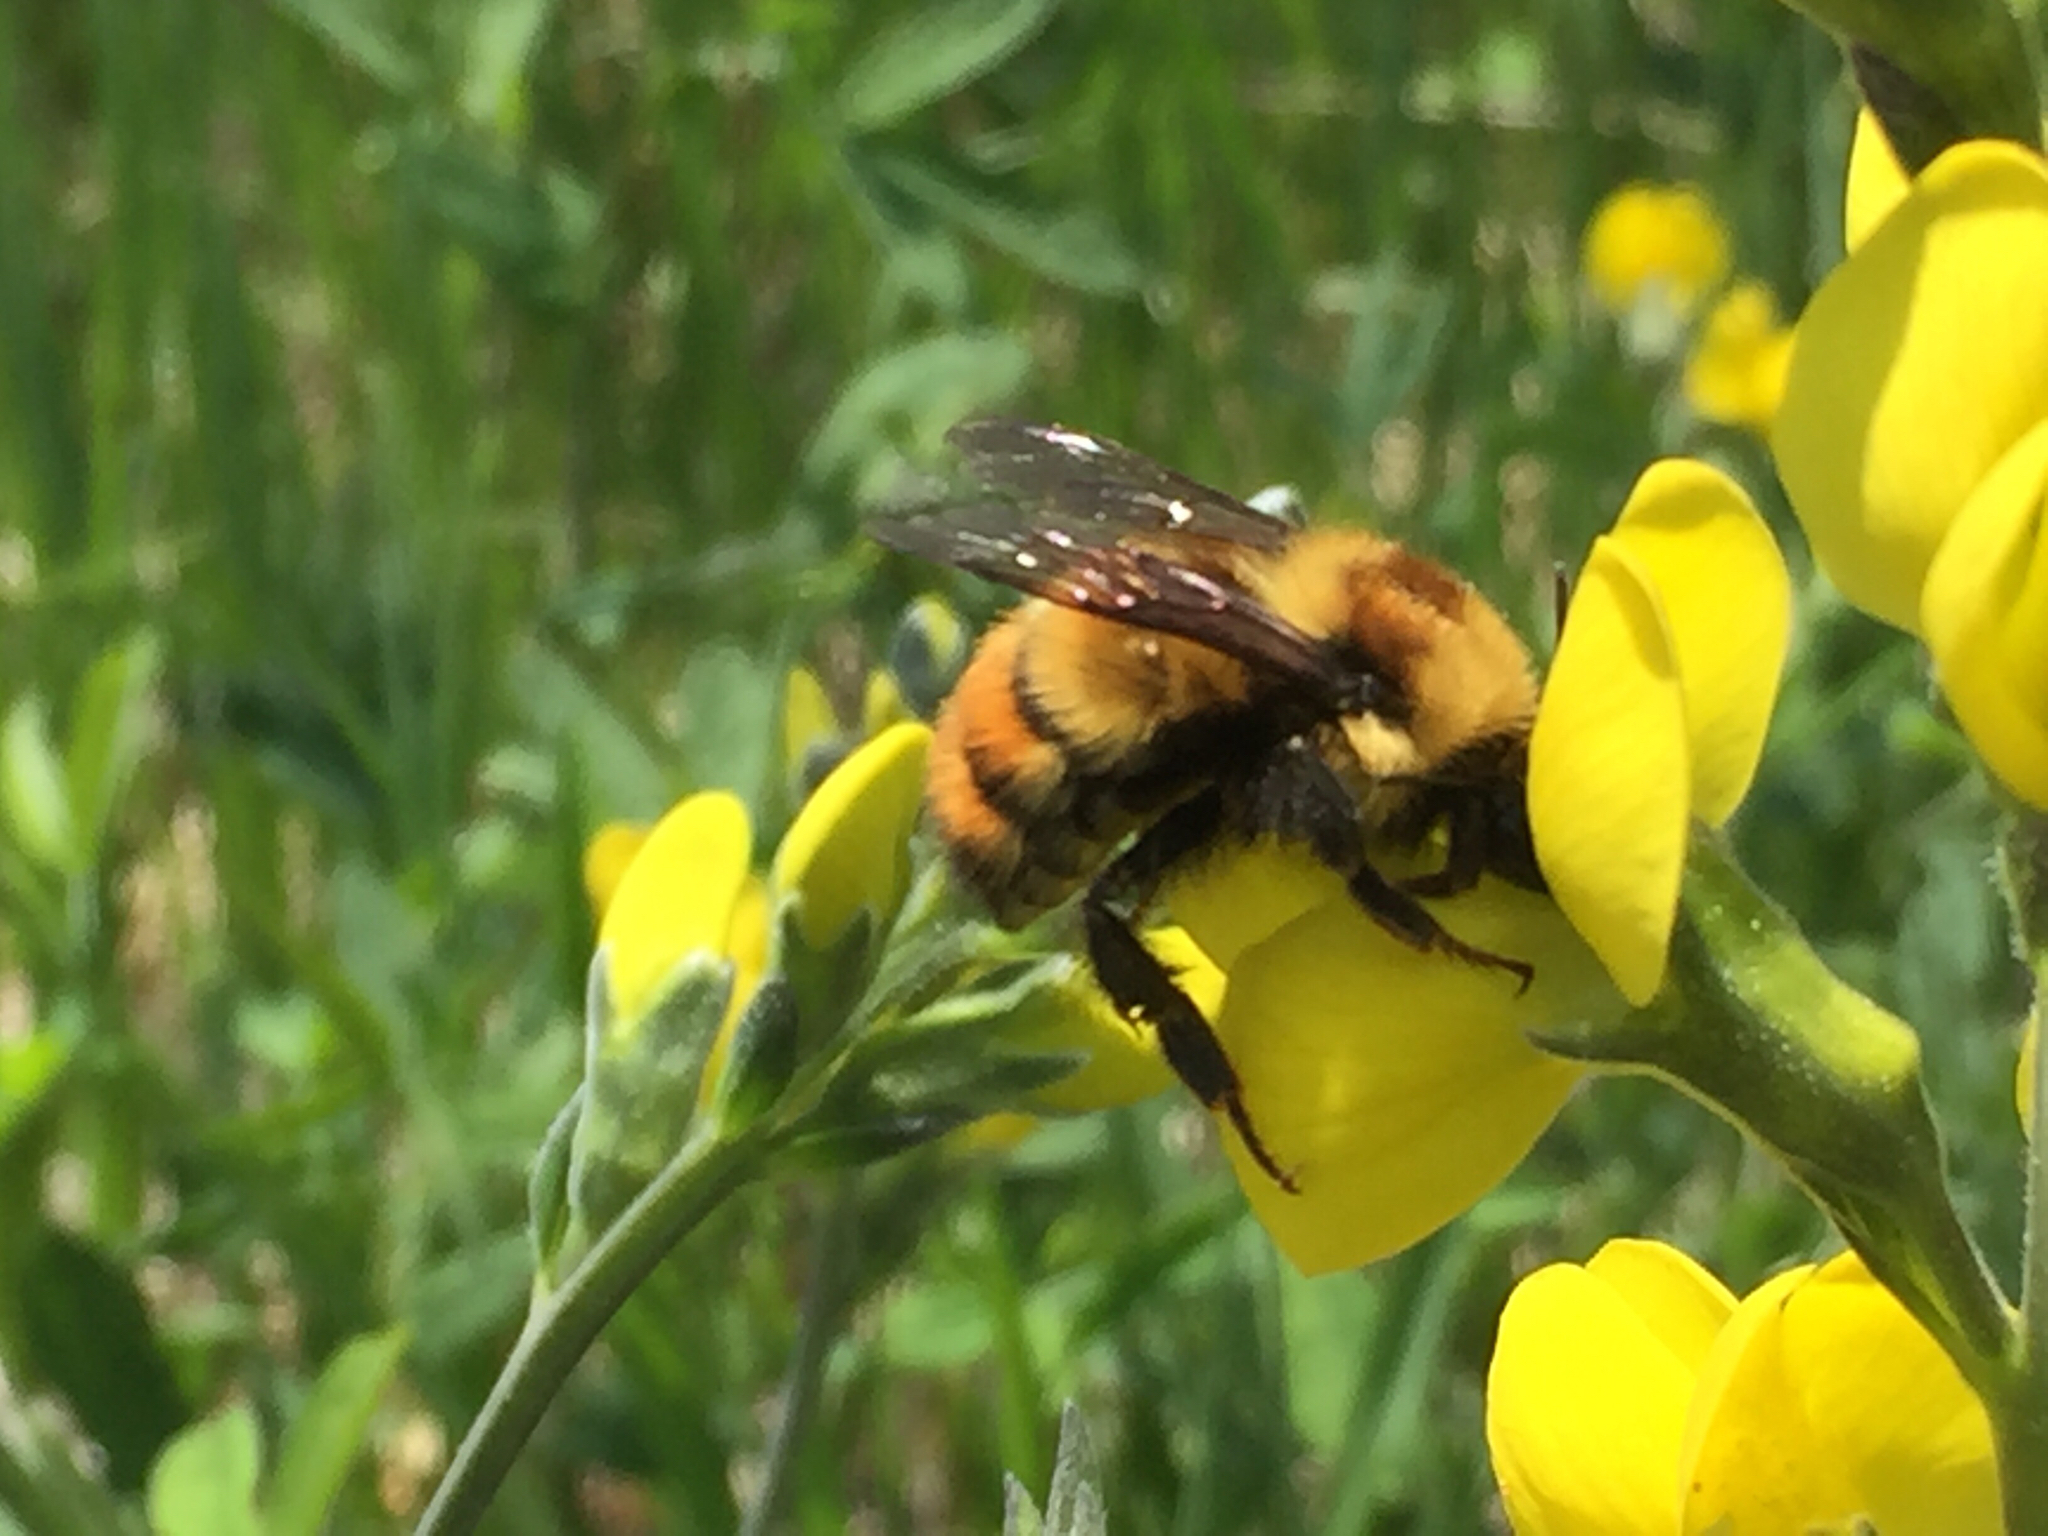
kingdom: Animalia
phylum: Arthropoda
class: Insecta
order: Hymenoptera
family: Apidae
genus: Bombus
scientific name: Bombus centralis
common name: Central bumble bee
